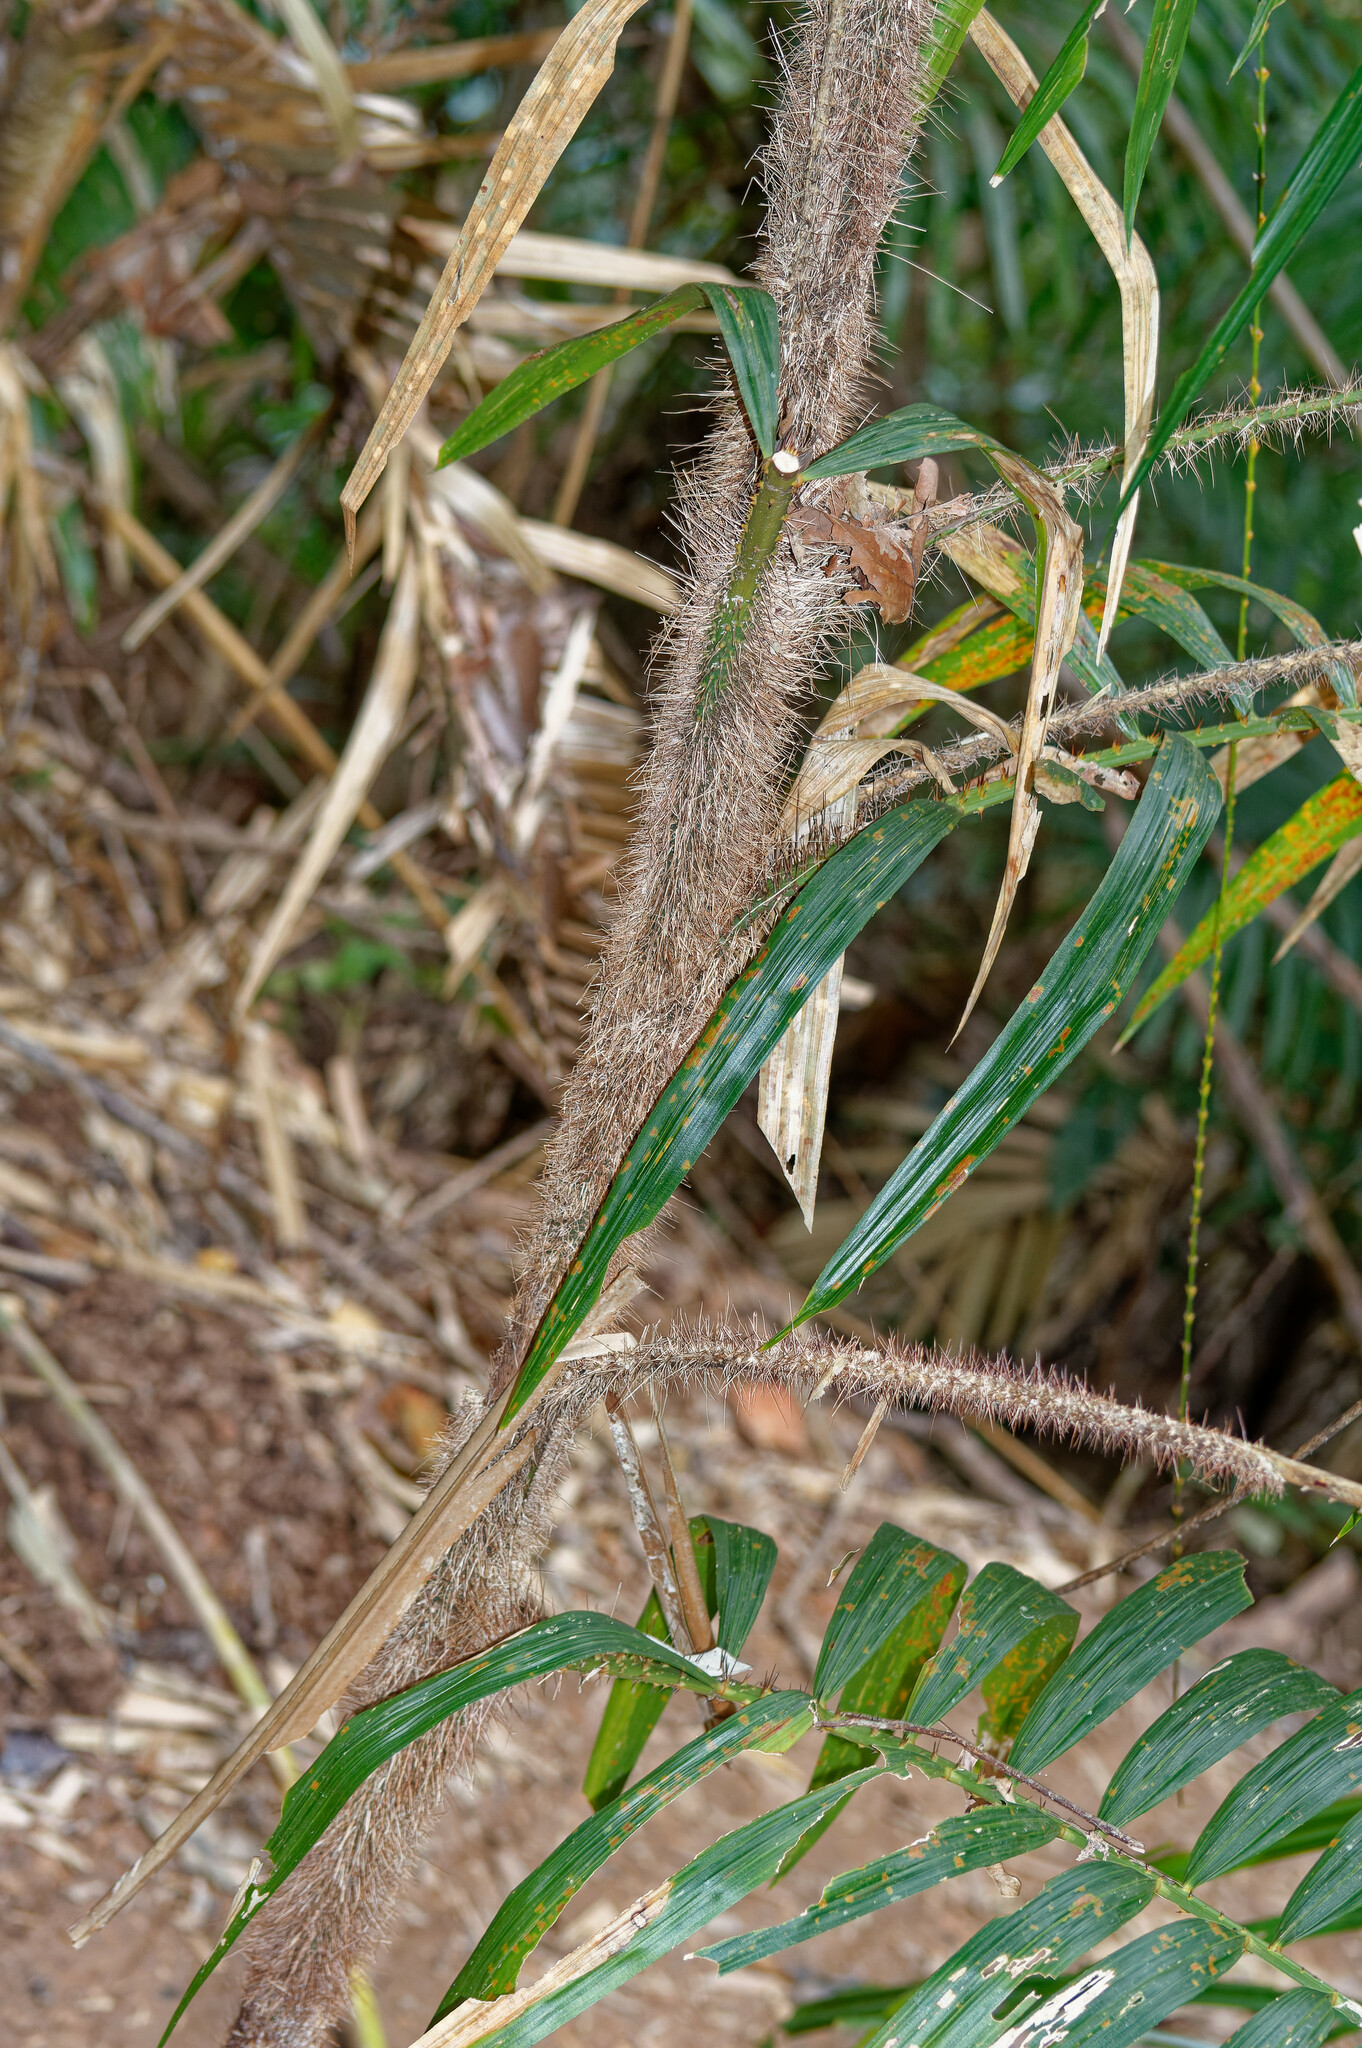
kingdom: Plantae
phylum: Tracheophyta
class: Liliopsida
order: Arecales
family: Arecaceae
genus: Calamus
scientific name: Calamus australis
